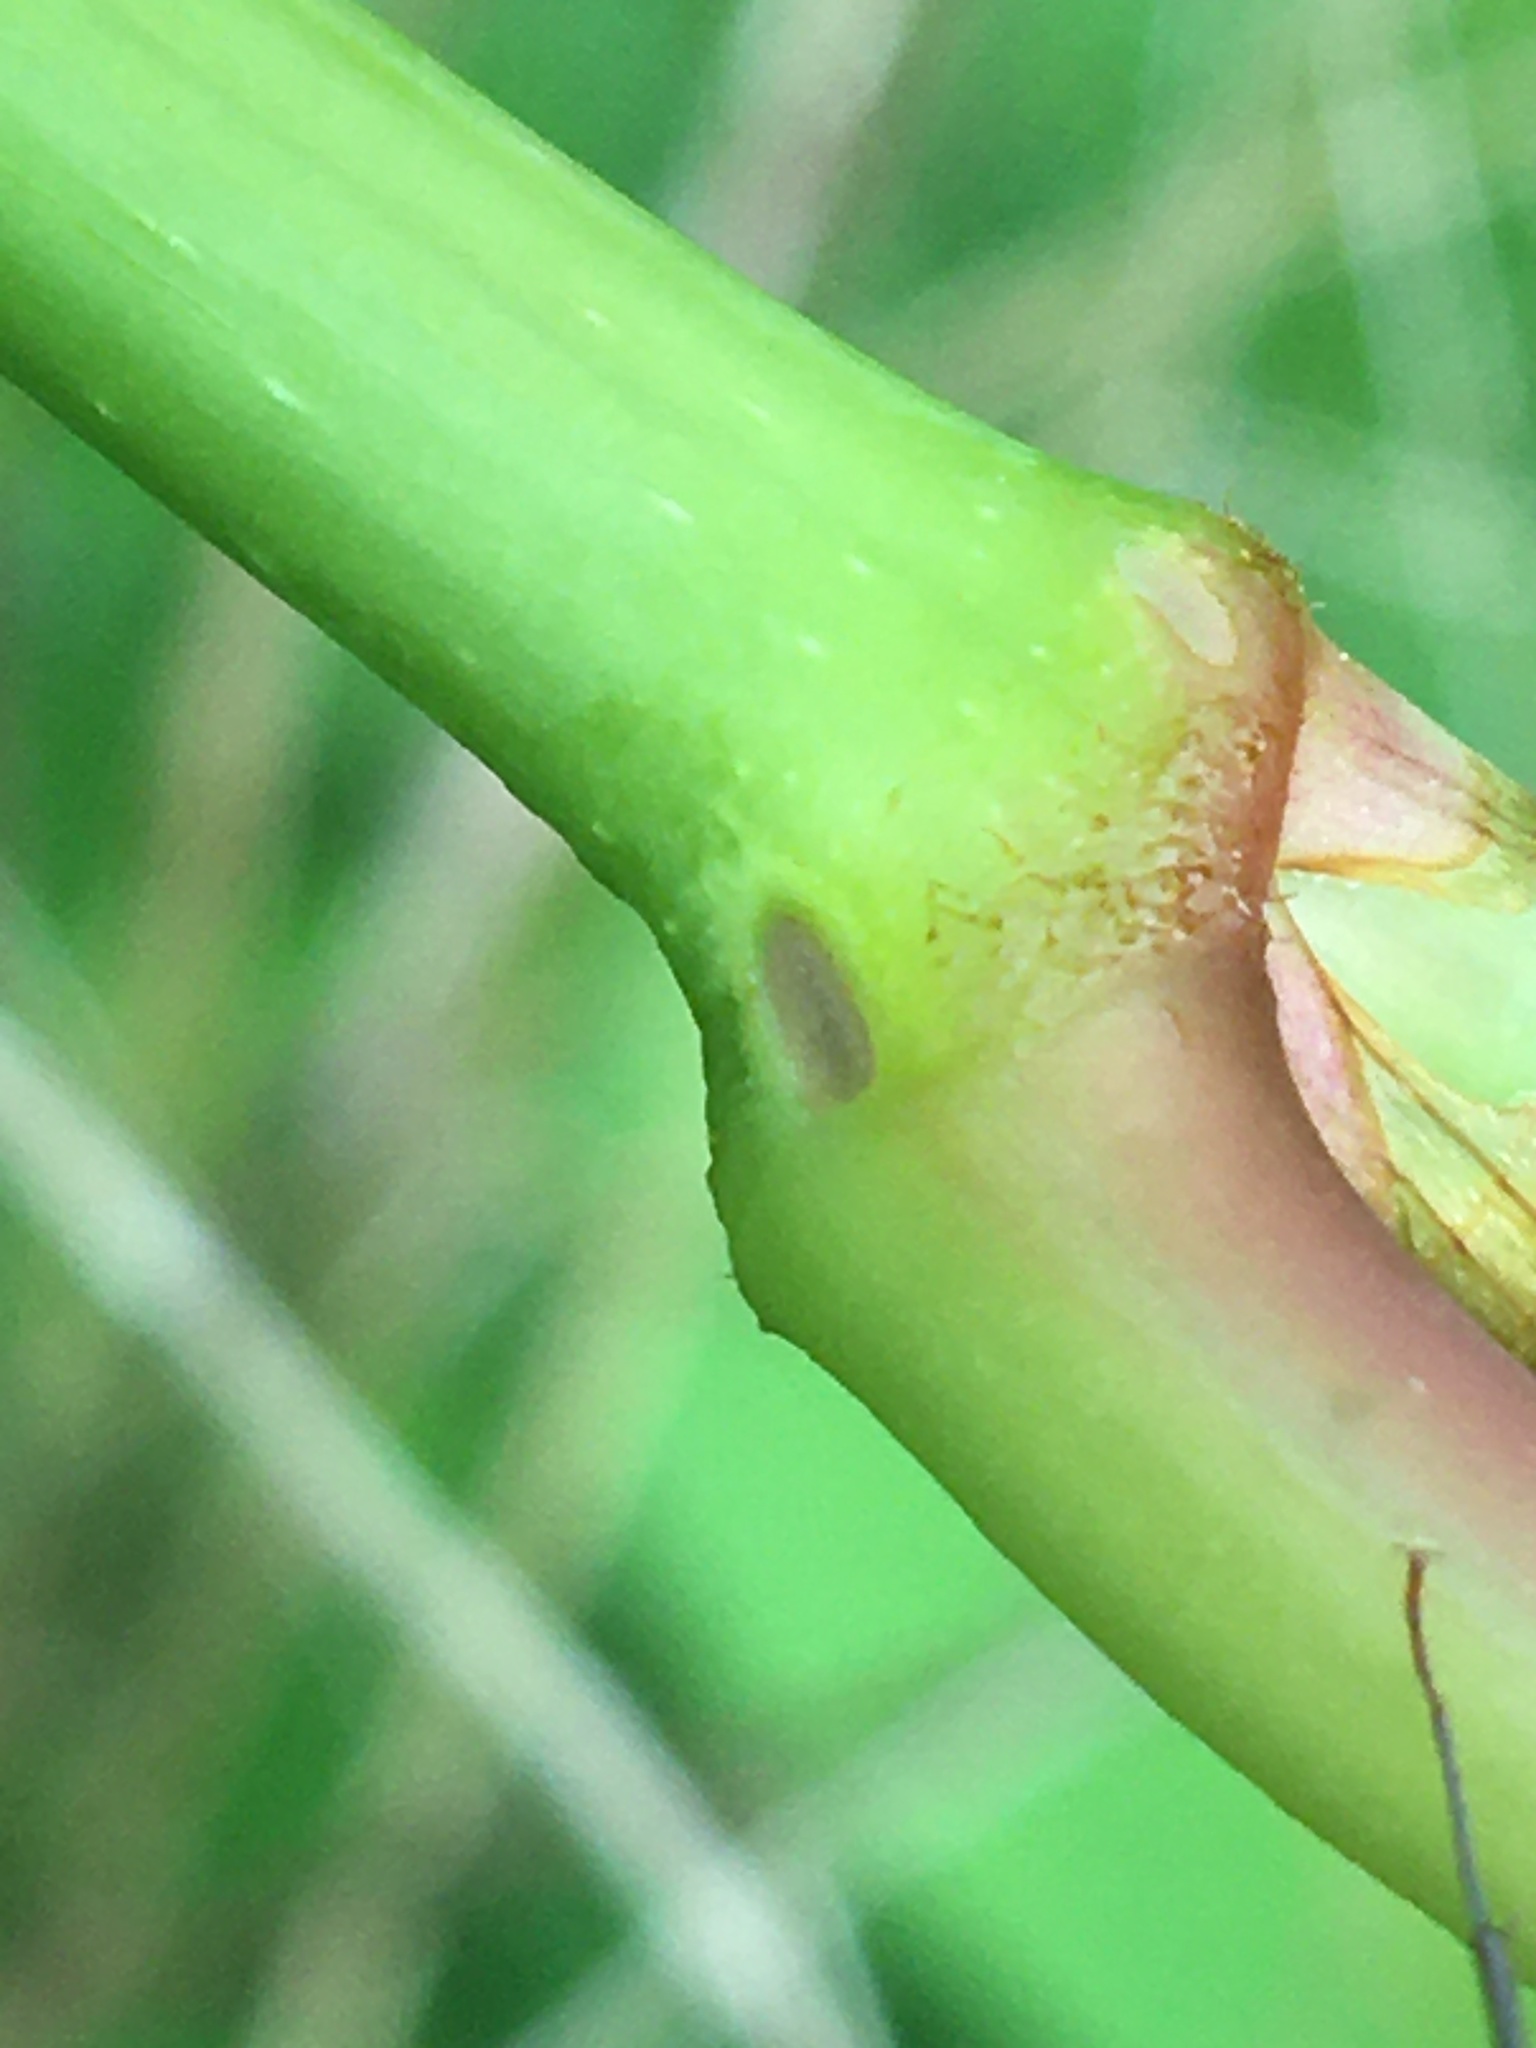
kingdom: Plantae
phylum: Tracheophyta
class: Magnoliopsida
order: Caryophyllales
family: Polygonaceae
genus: Reynoutria
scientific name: Reynoutria sachalinensis
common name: Giant knotweed
